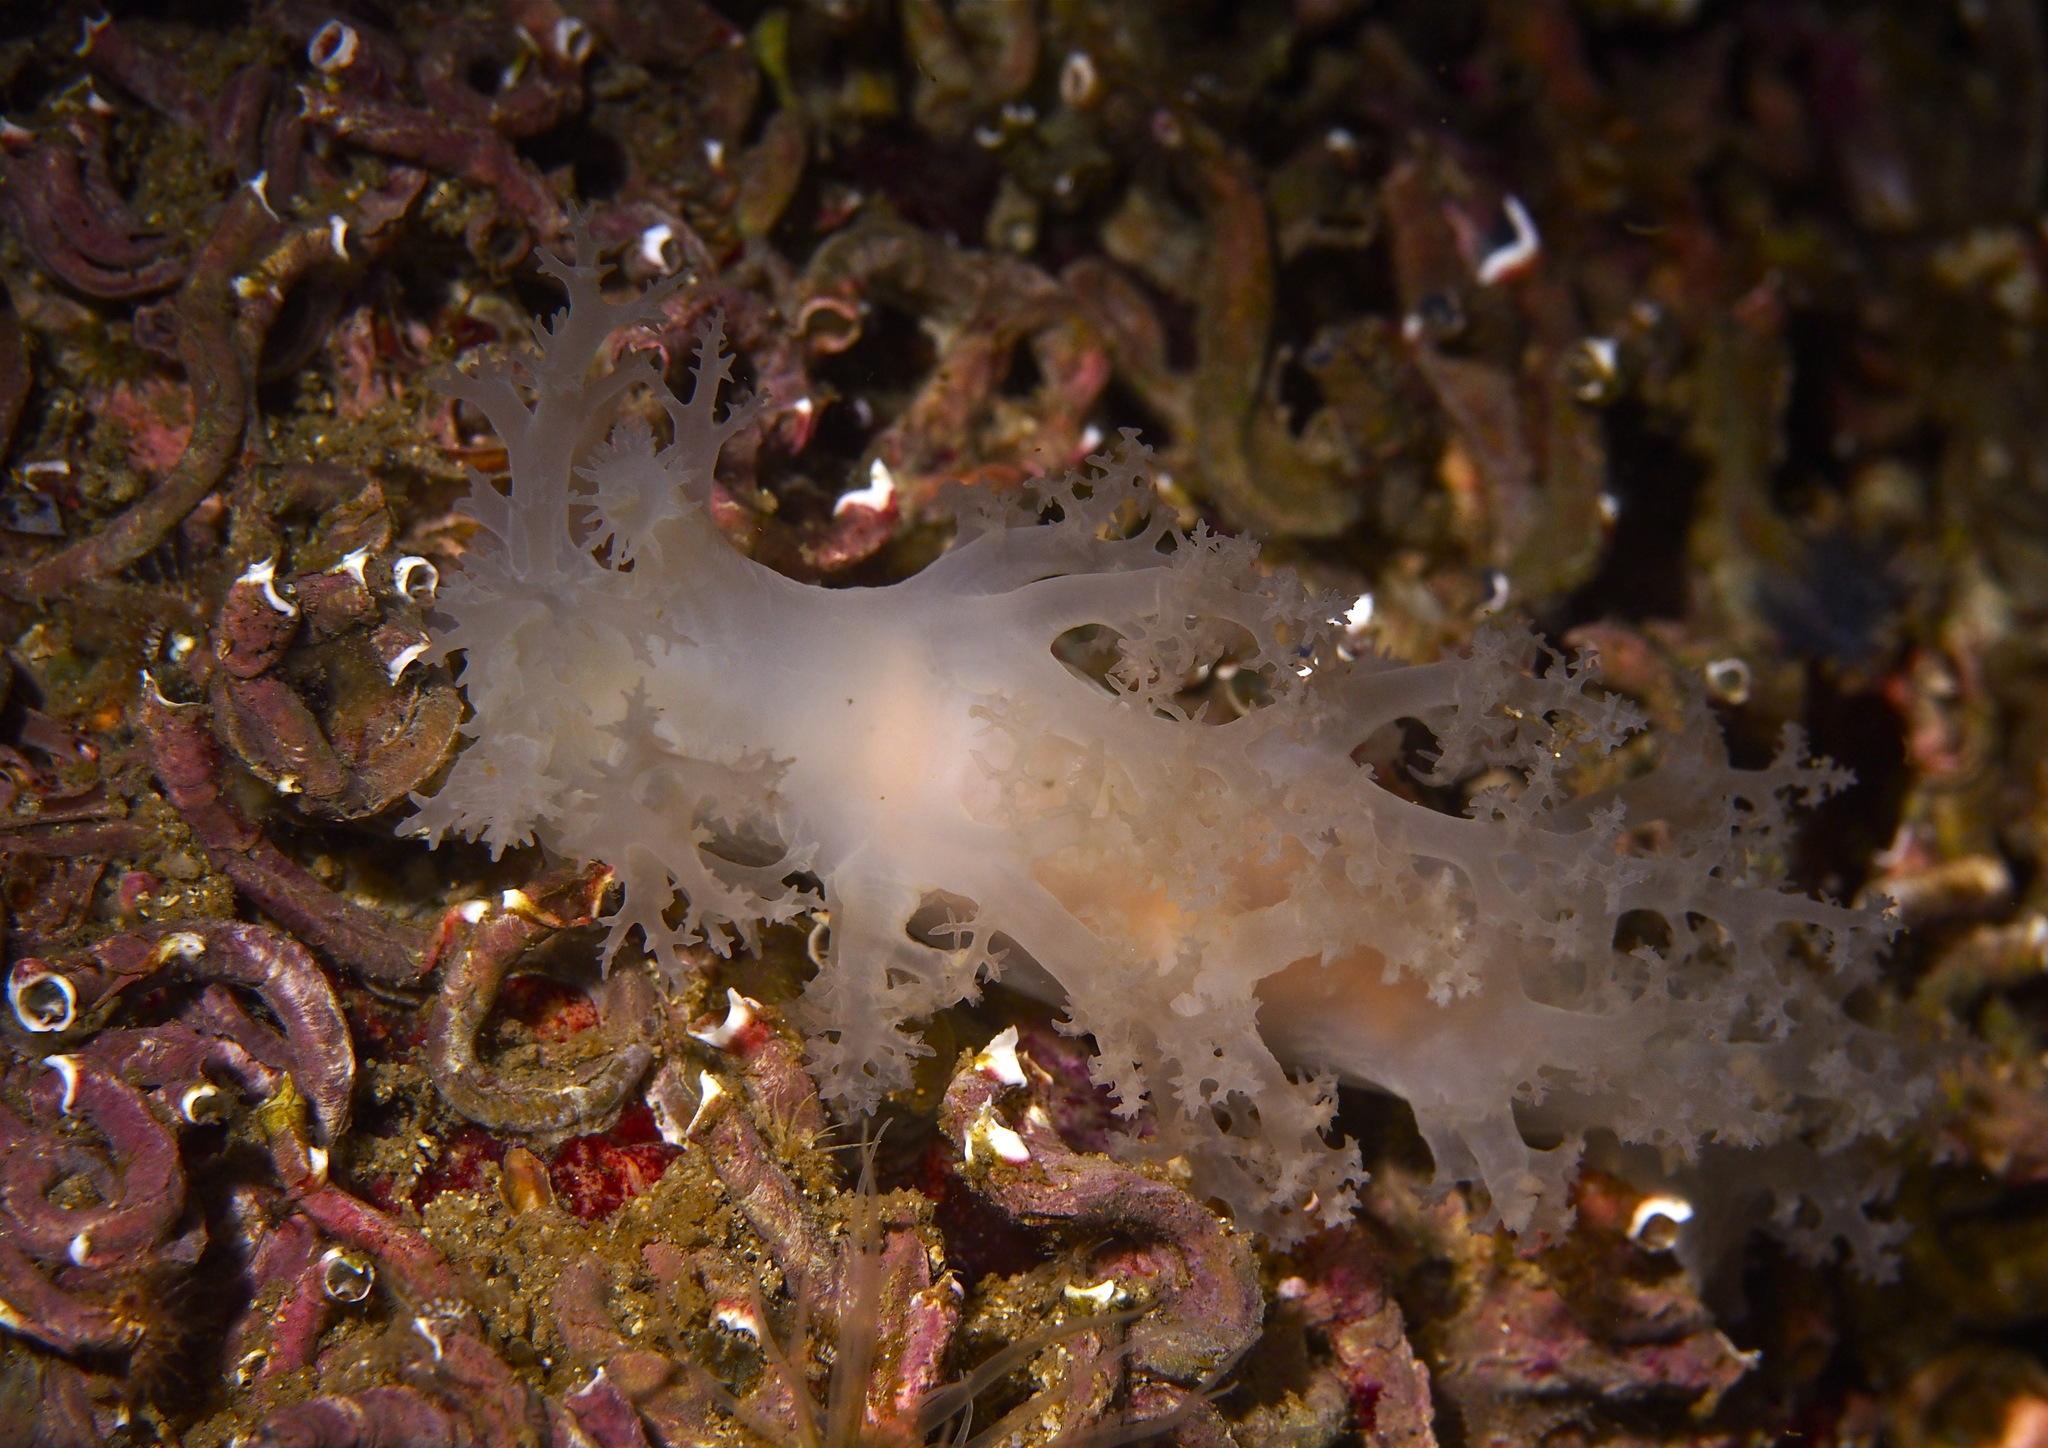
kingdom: Animalia
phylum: Mollusca
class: Gastropoda
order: Nudibranchia
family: Dendronotidae
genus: Dendronotus
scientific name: Dendronotus lacteus
